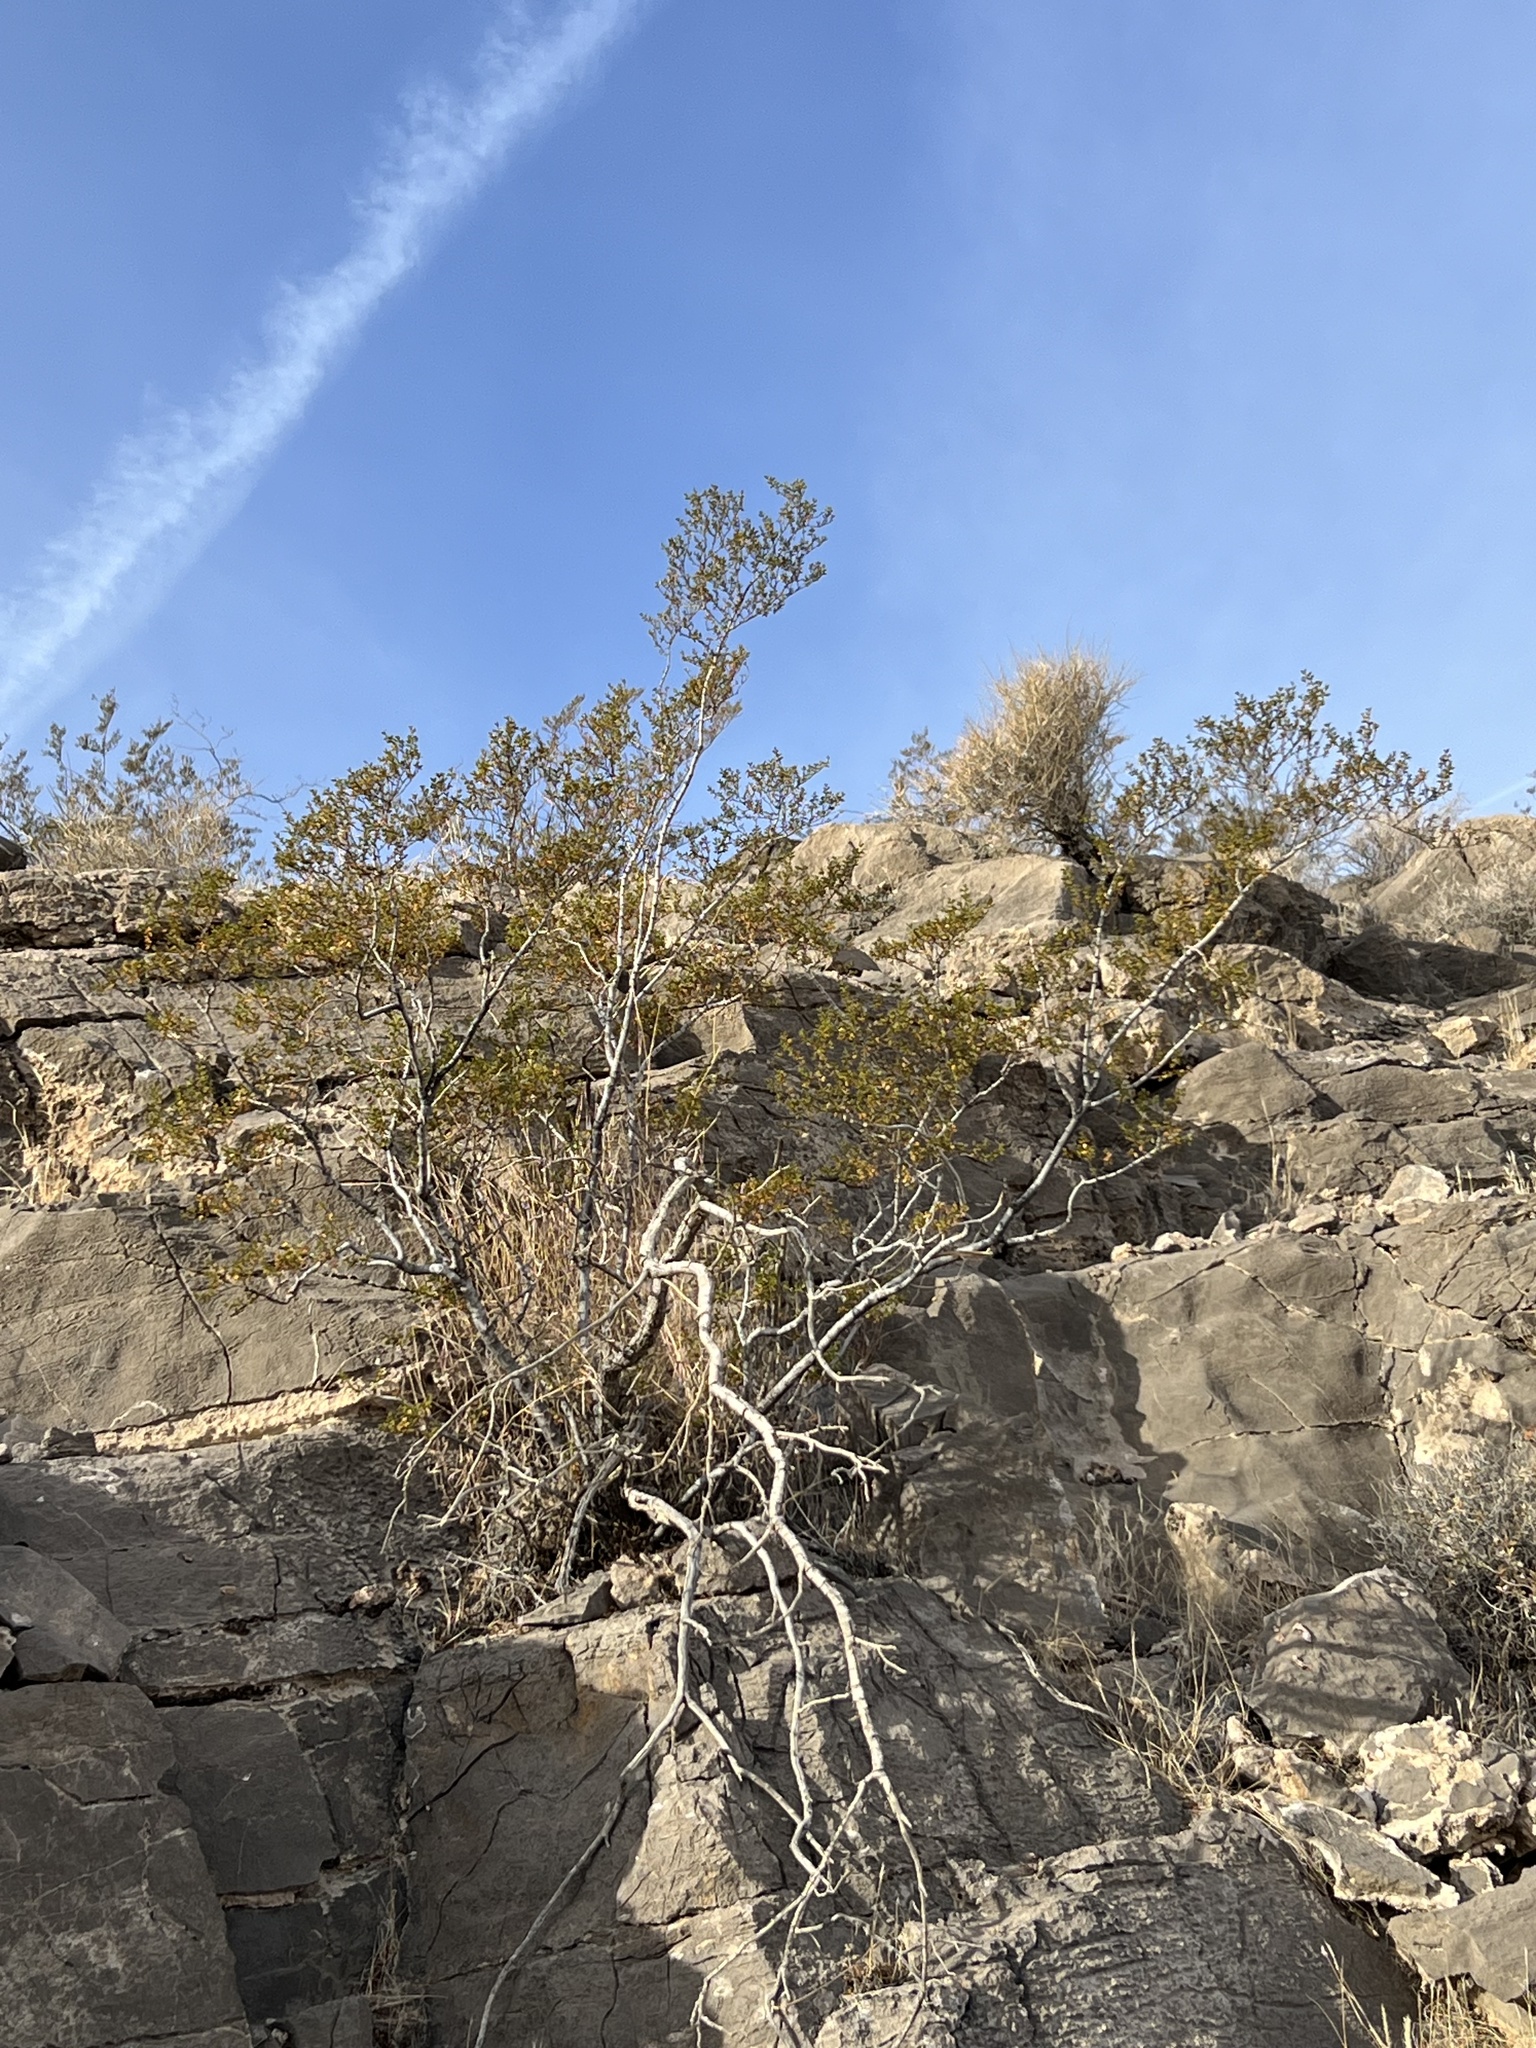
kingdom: Plantae
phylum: Tracheophyta
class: Magnoliopsida
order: Zygophyllales
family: Zygophyllaceae
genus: Larrea
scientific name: Larrea tridentata
